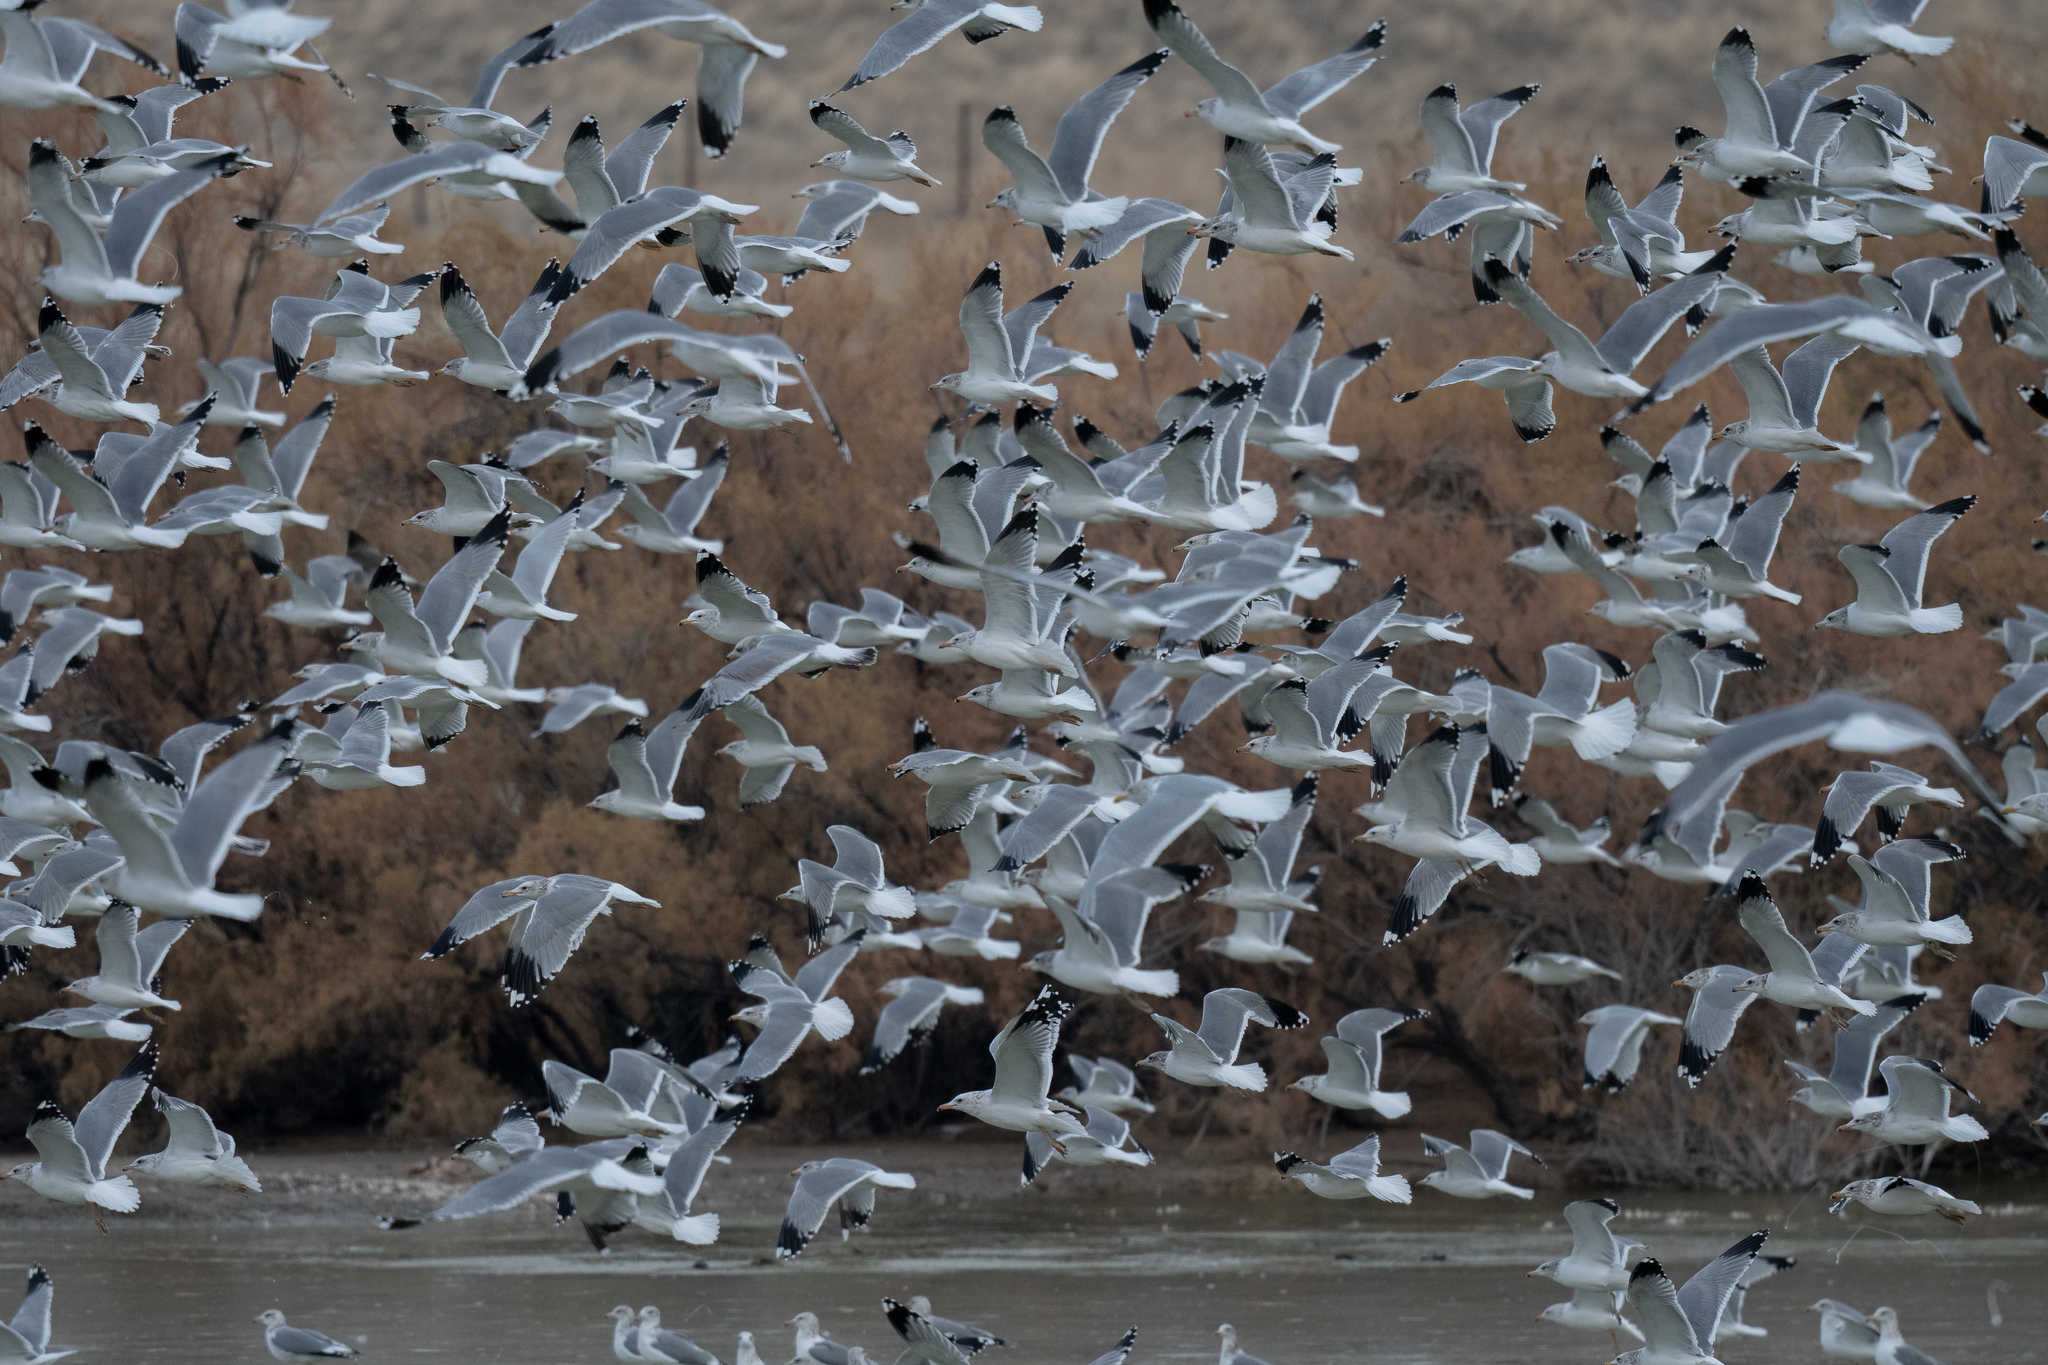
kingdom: Animalia
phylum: Chordata
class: Aves
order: Charadriiformes
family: Laridae
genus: Larus
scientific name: Larus californicus
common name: California gull
